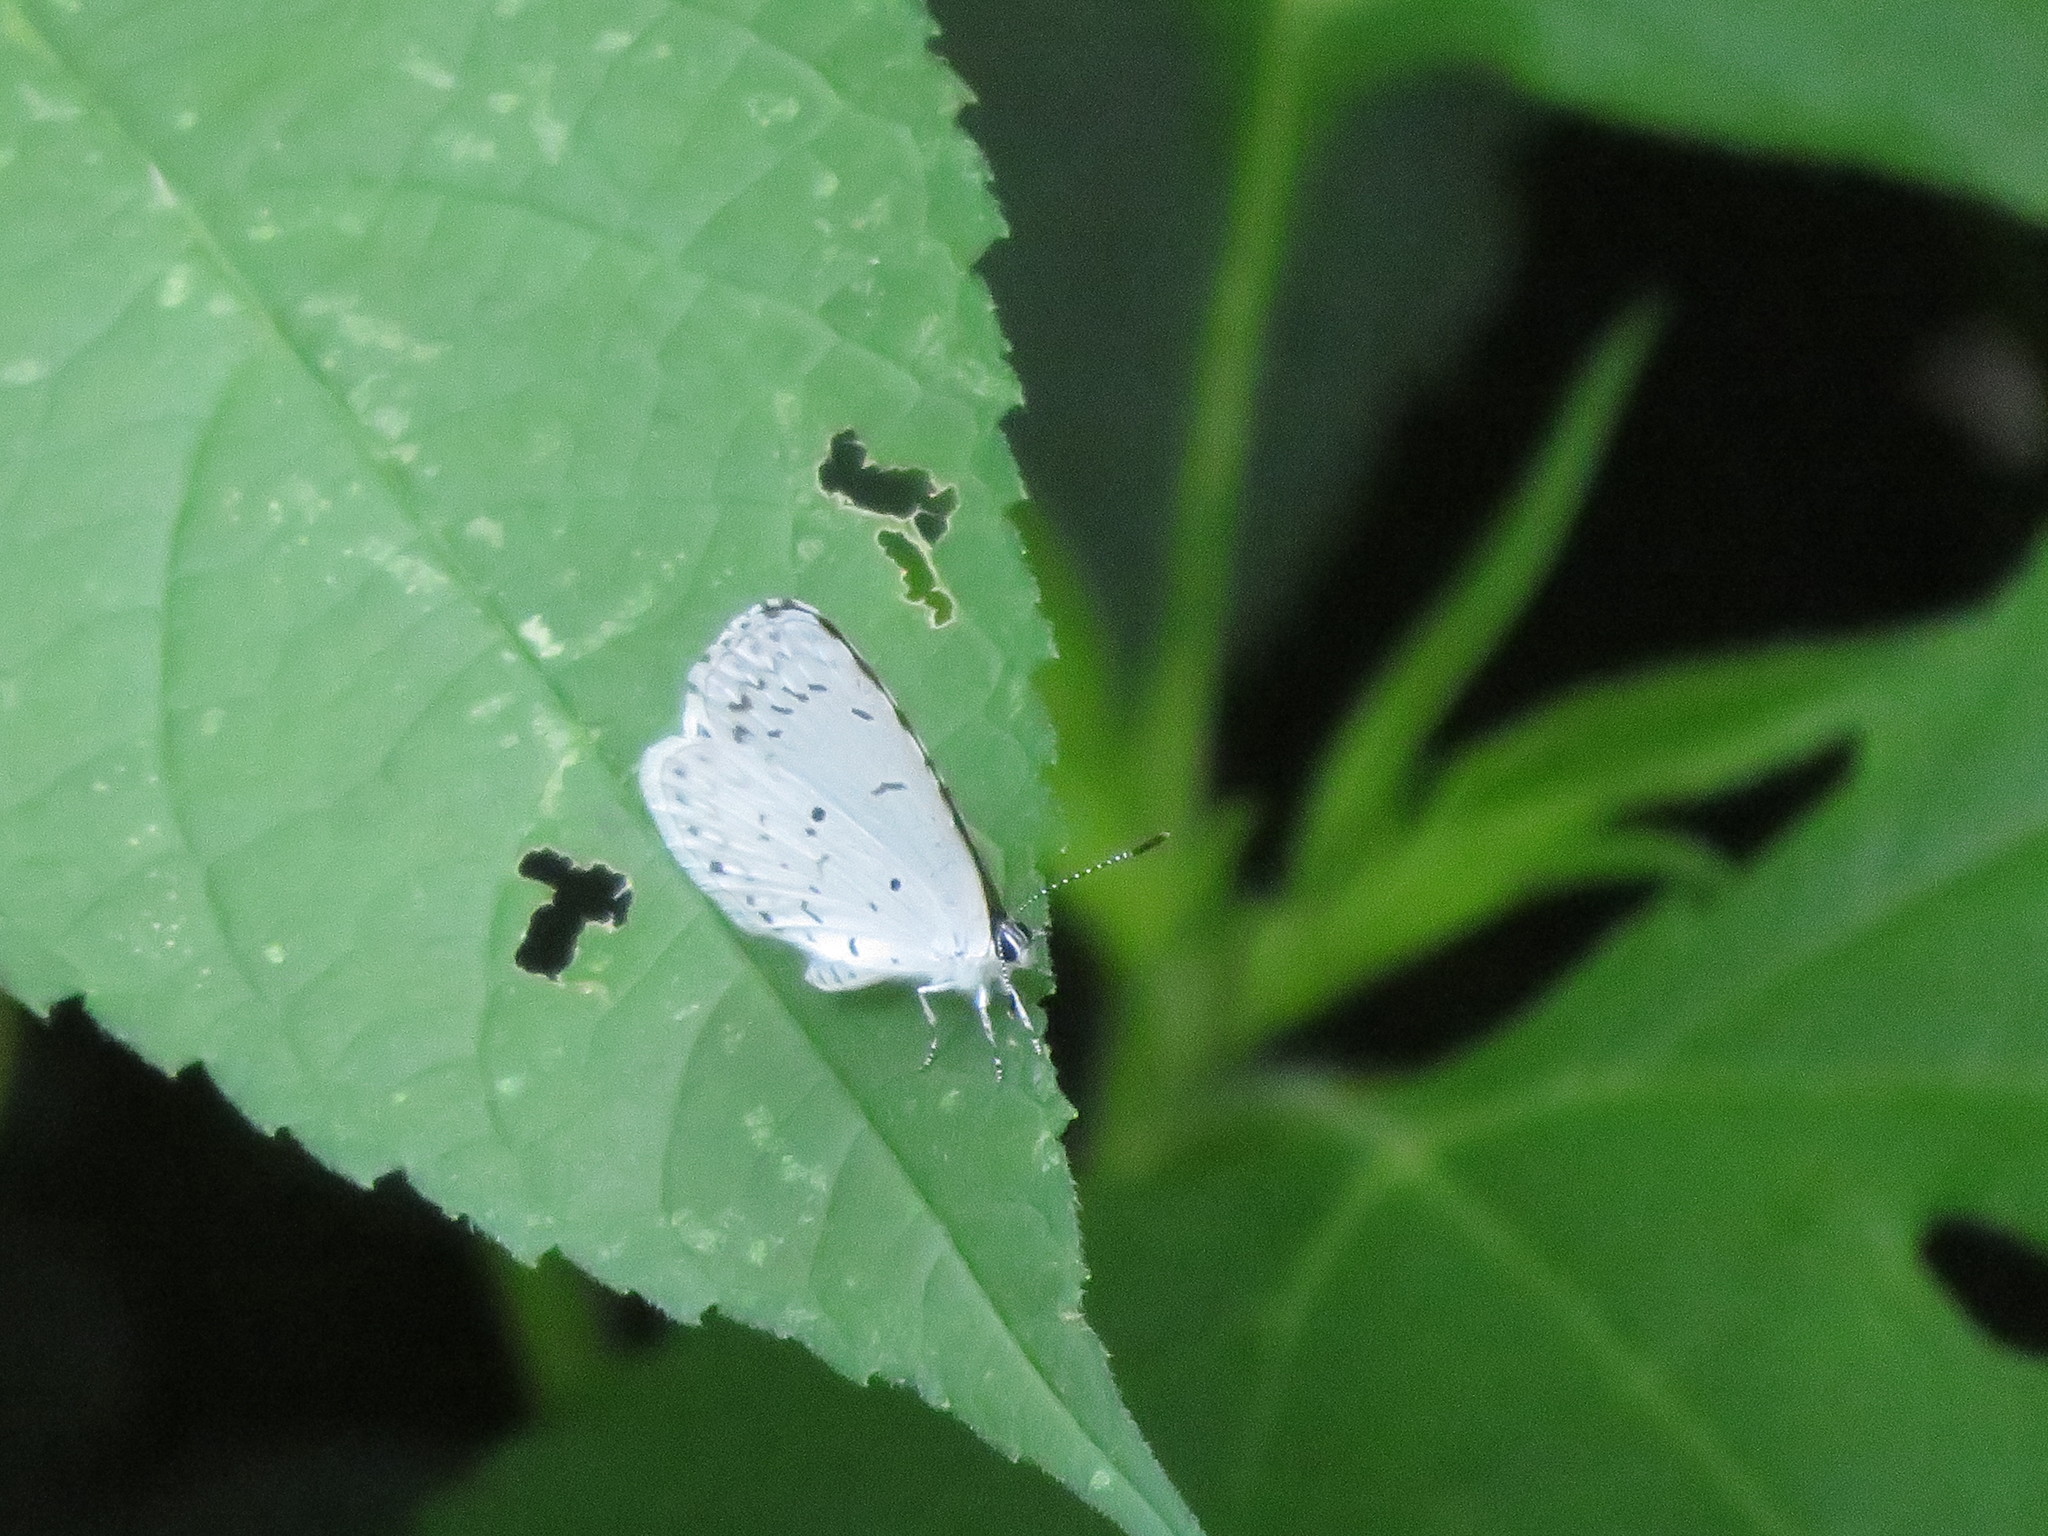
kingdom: Animalia
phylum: Arthropoda
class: Insecta
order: Lepidoptera
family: Lycaenidae
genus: Cyaniris
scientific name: Cyaniris neglecta
